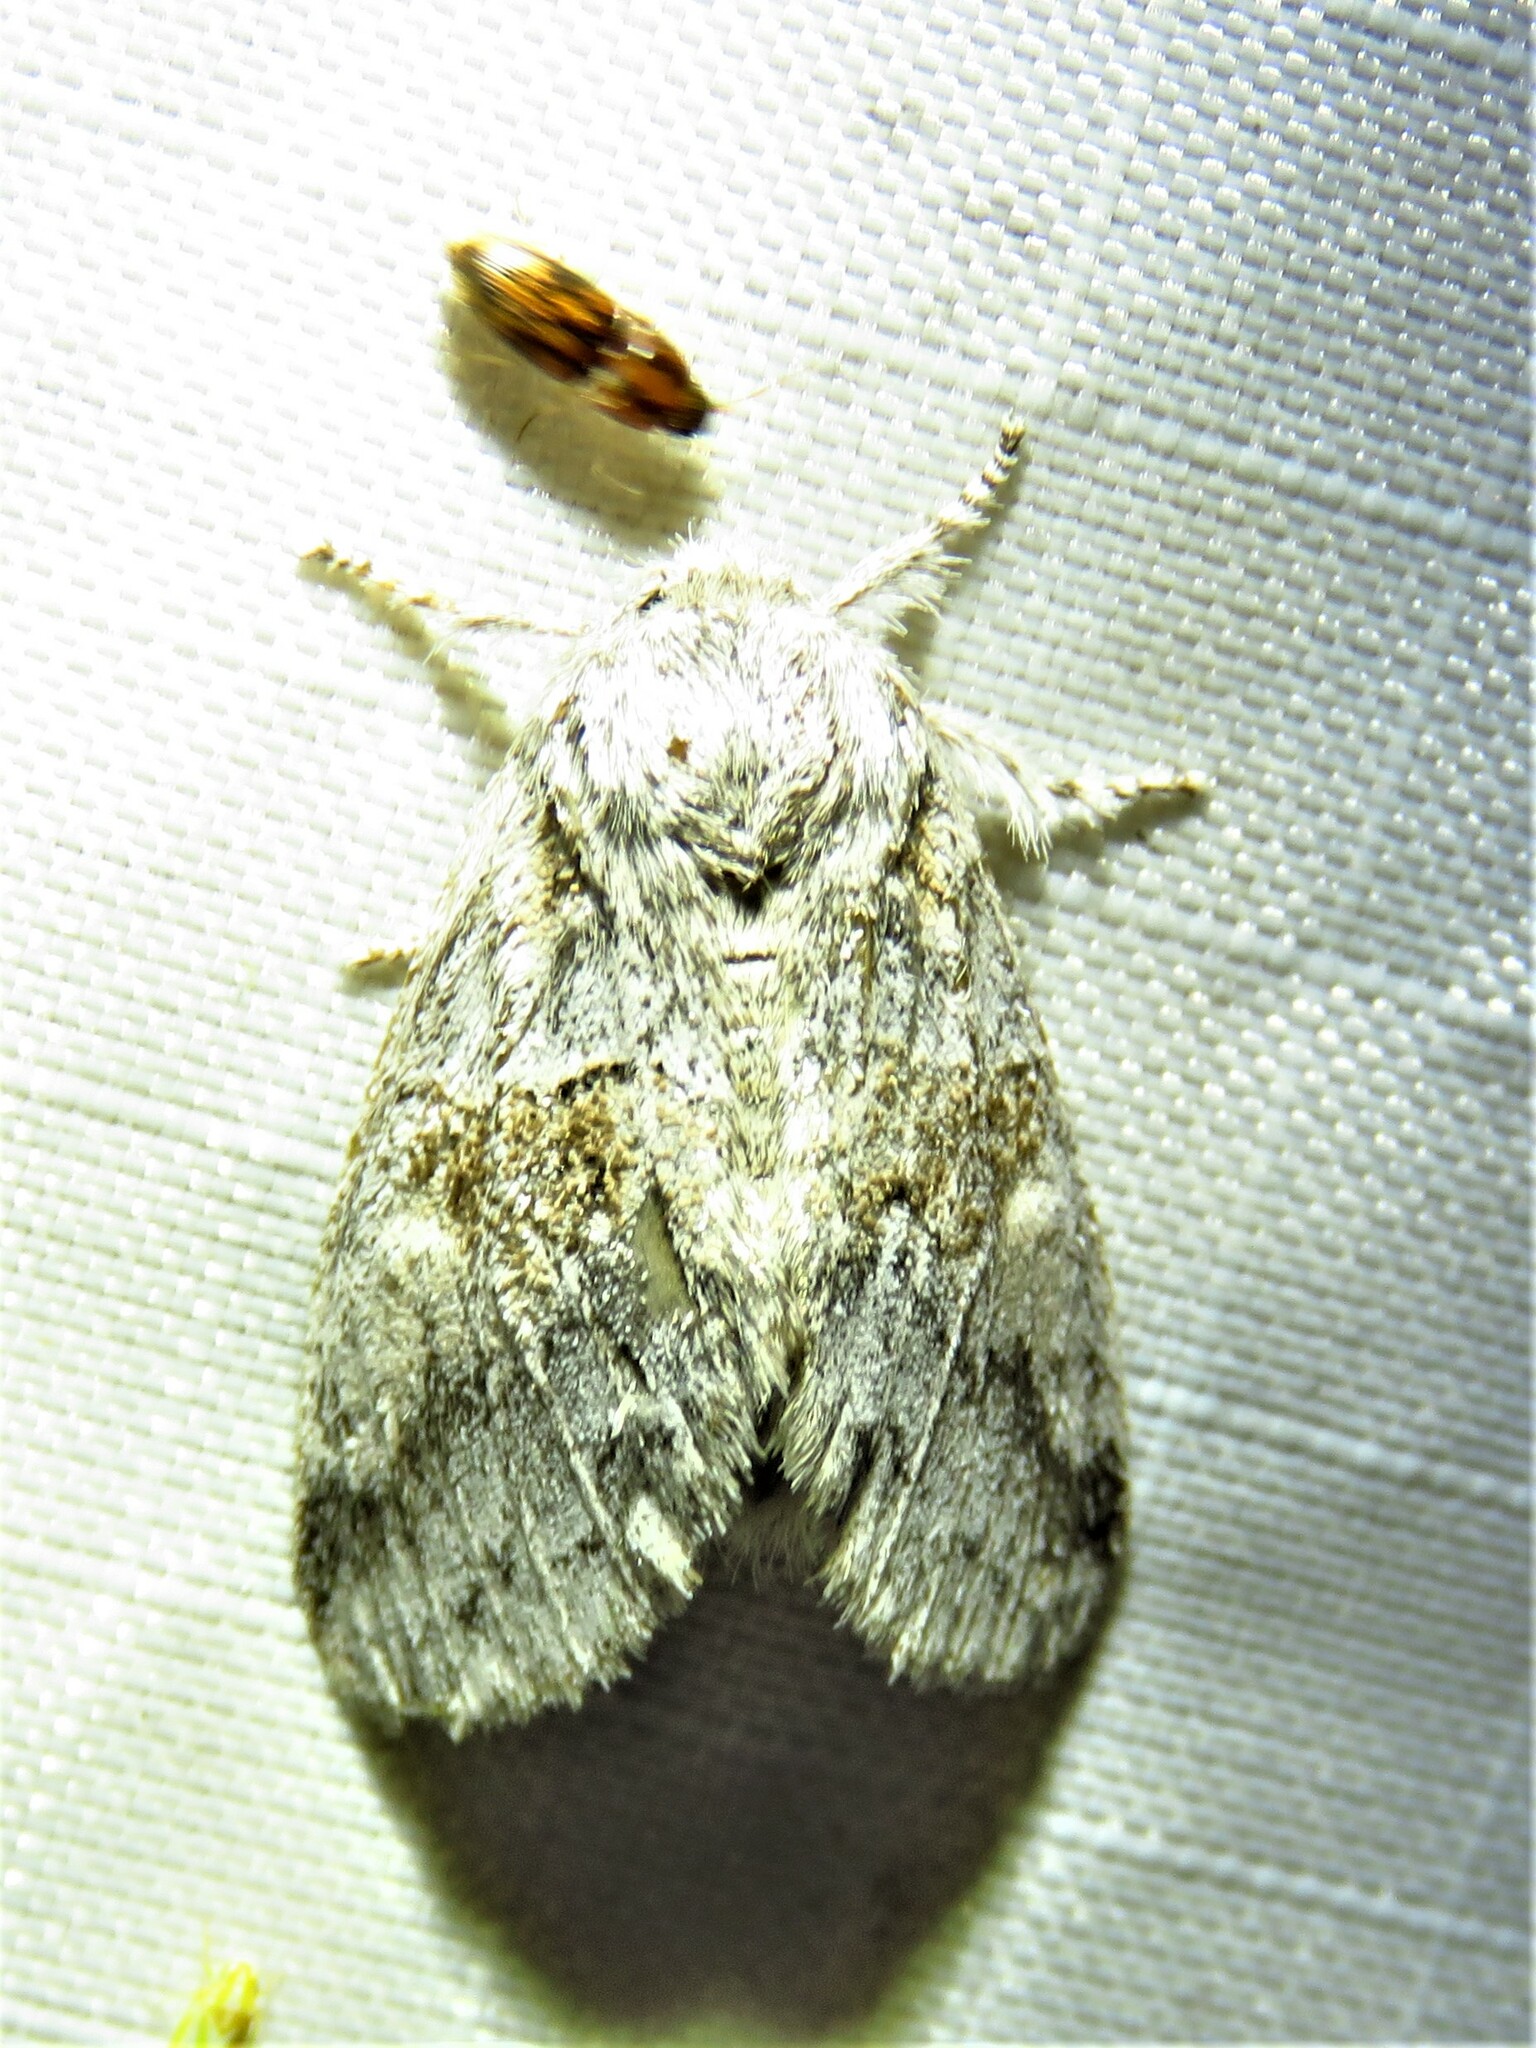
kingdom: Animalia
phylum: Arthropoda
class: Insecta
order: Lepidoptera
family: Notodontidae
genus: Gluphisia
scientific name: Gluphisia septentrionis
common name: Common gluphisia
